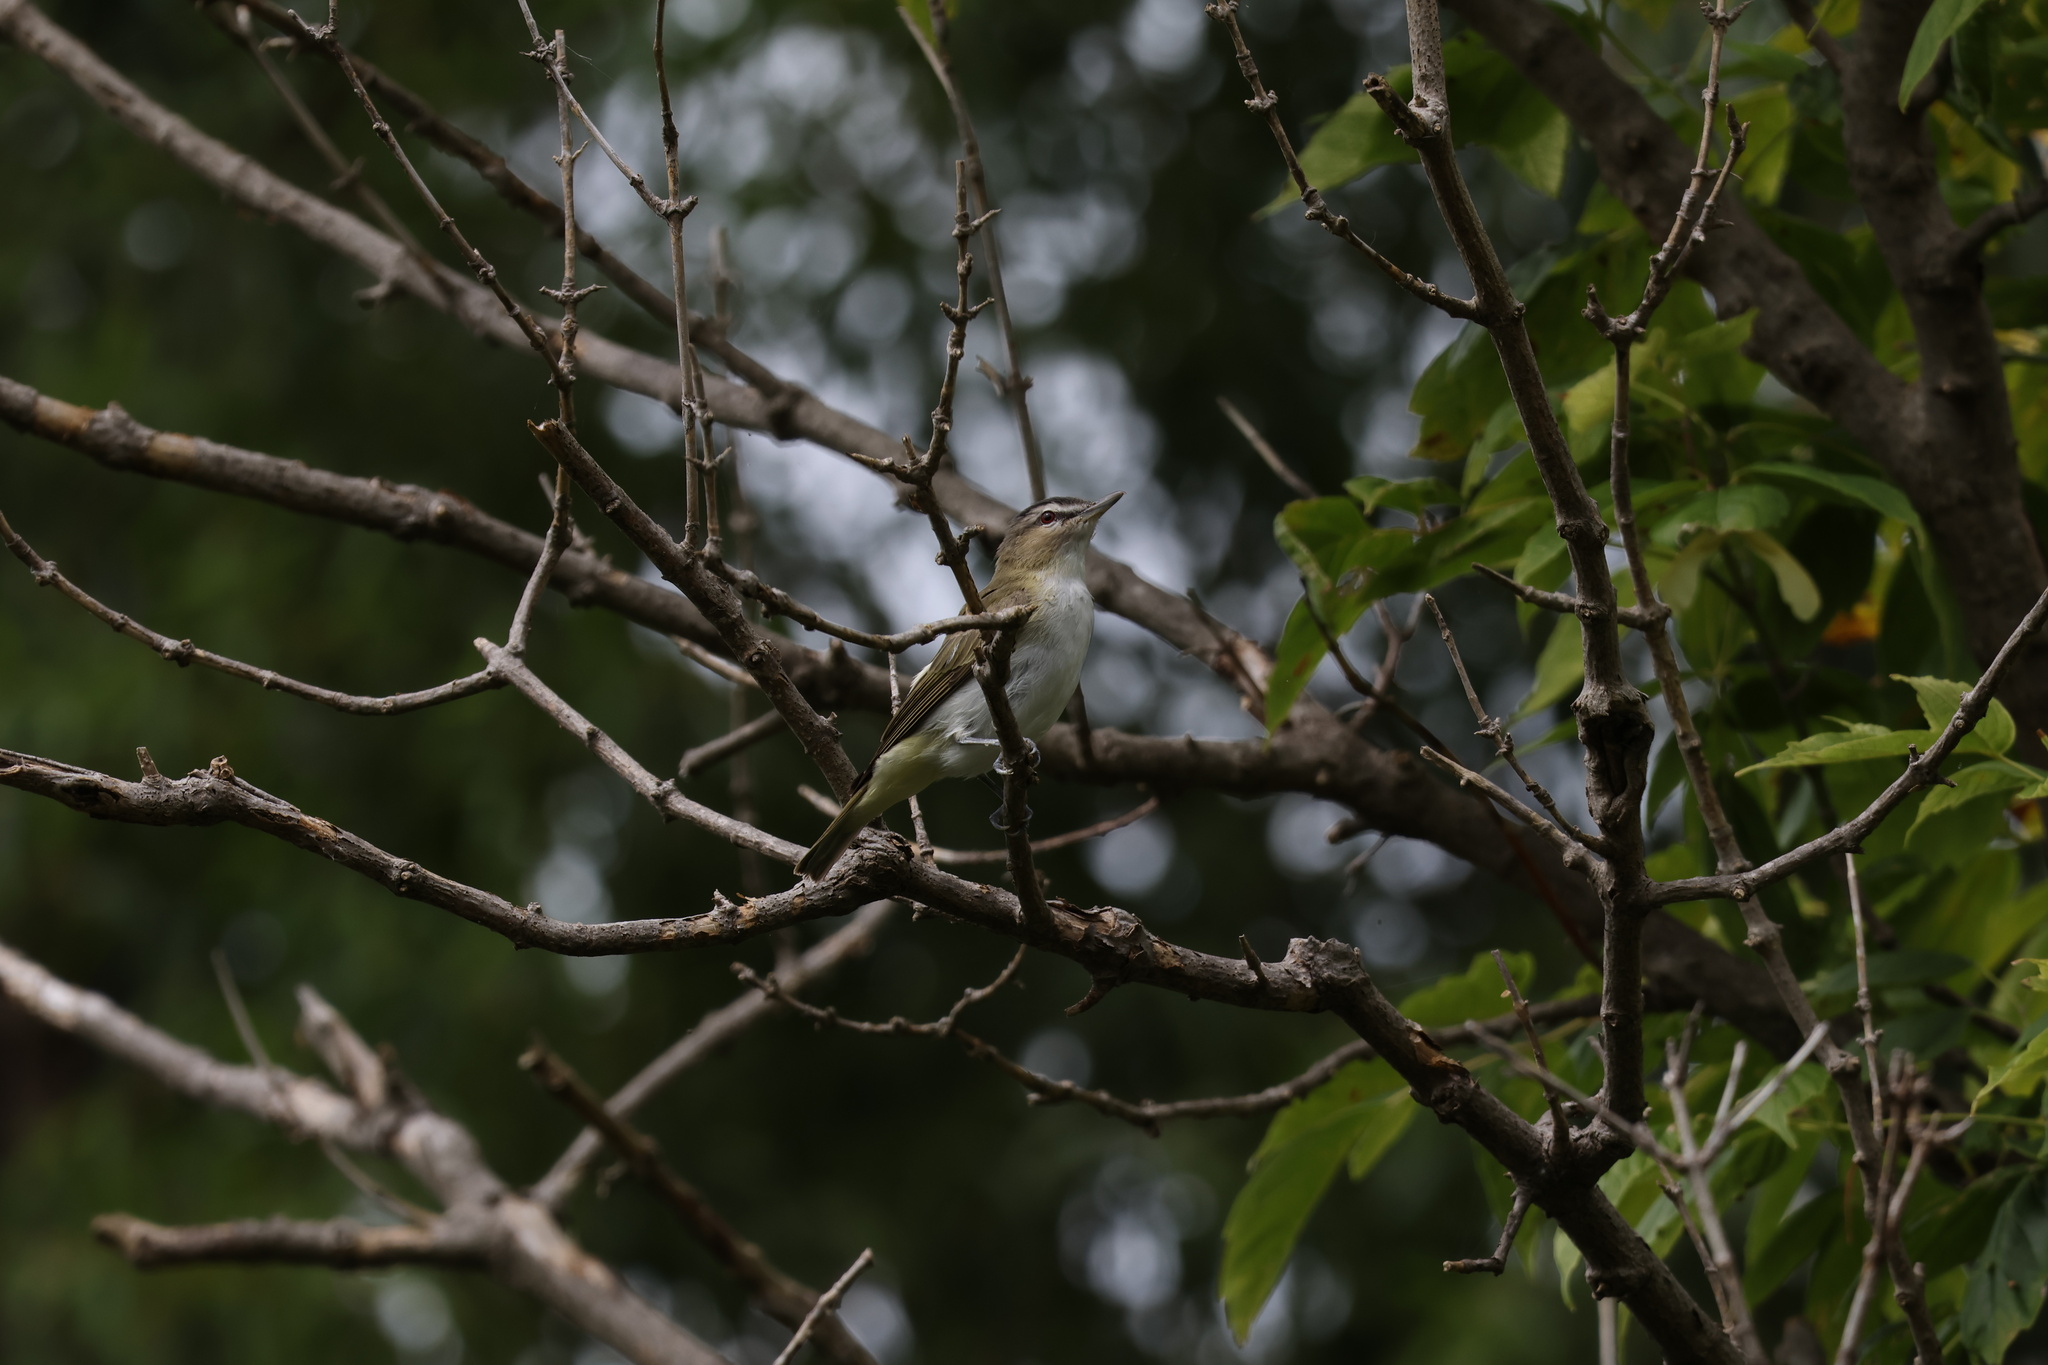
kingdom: Animalia
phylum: Chordata
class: Aves
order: Passeriformes
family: Vireonidae
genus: Vireo
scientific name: Vireo olivaceus
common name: Red-eyed vireo
